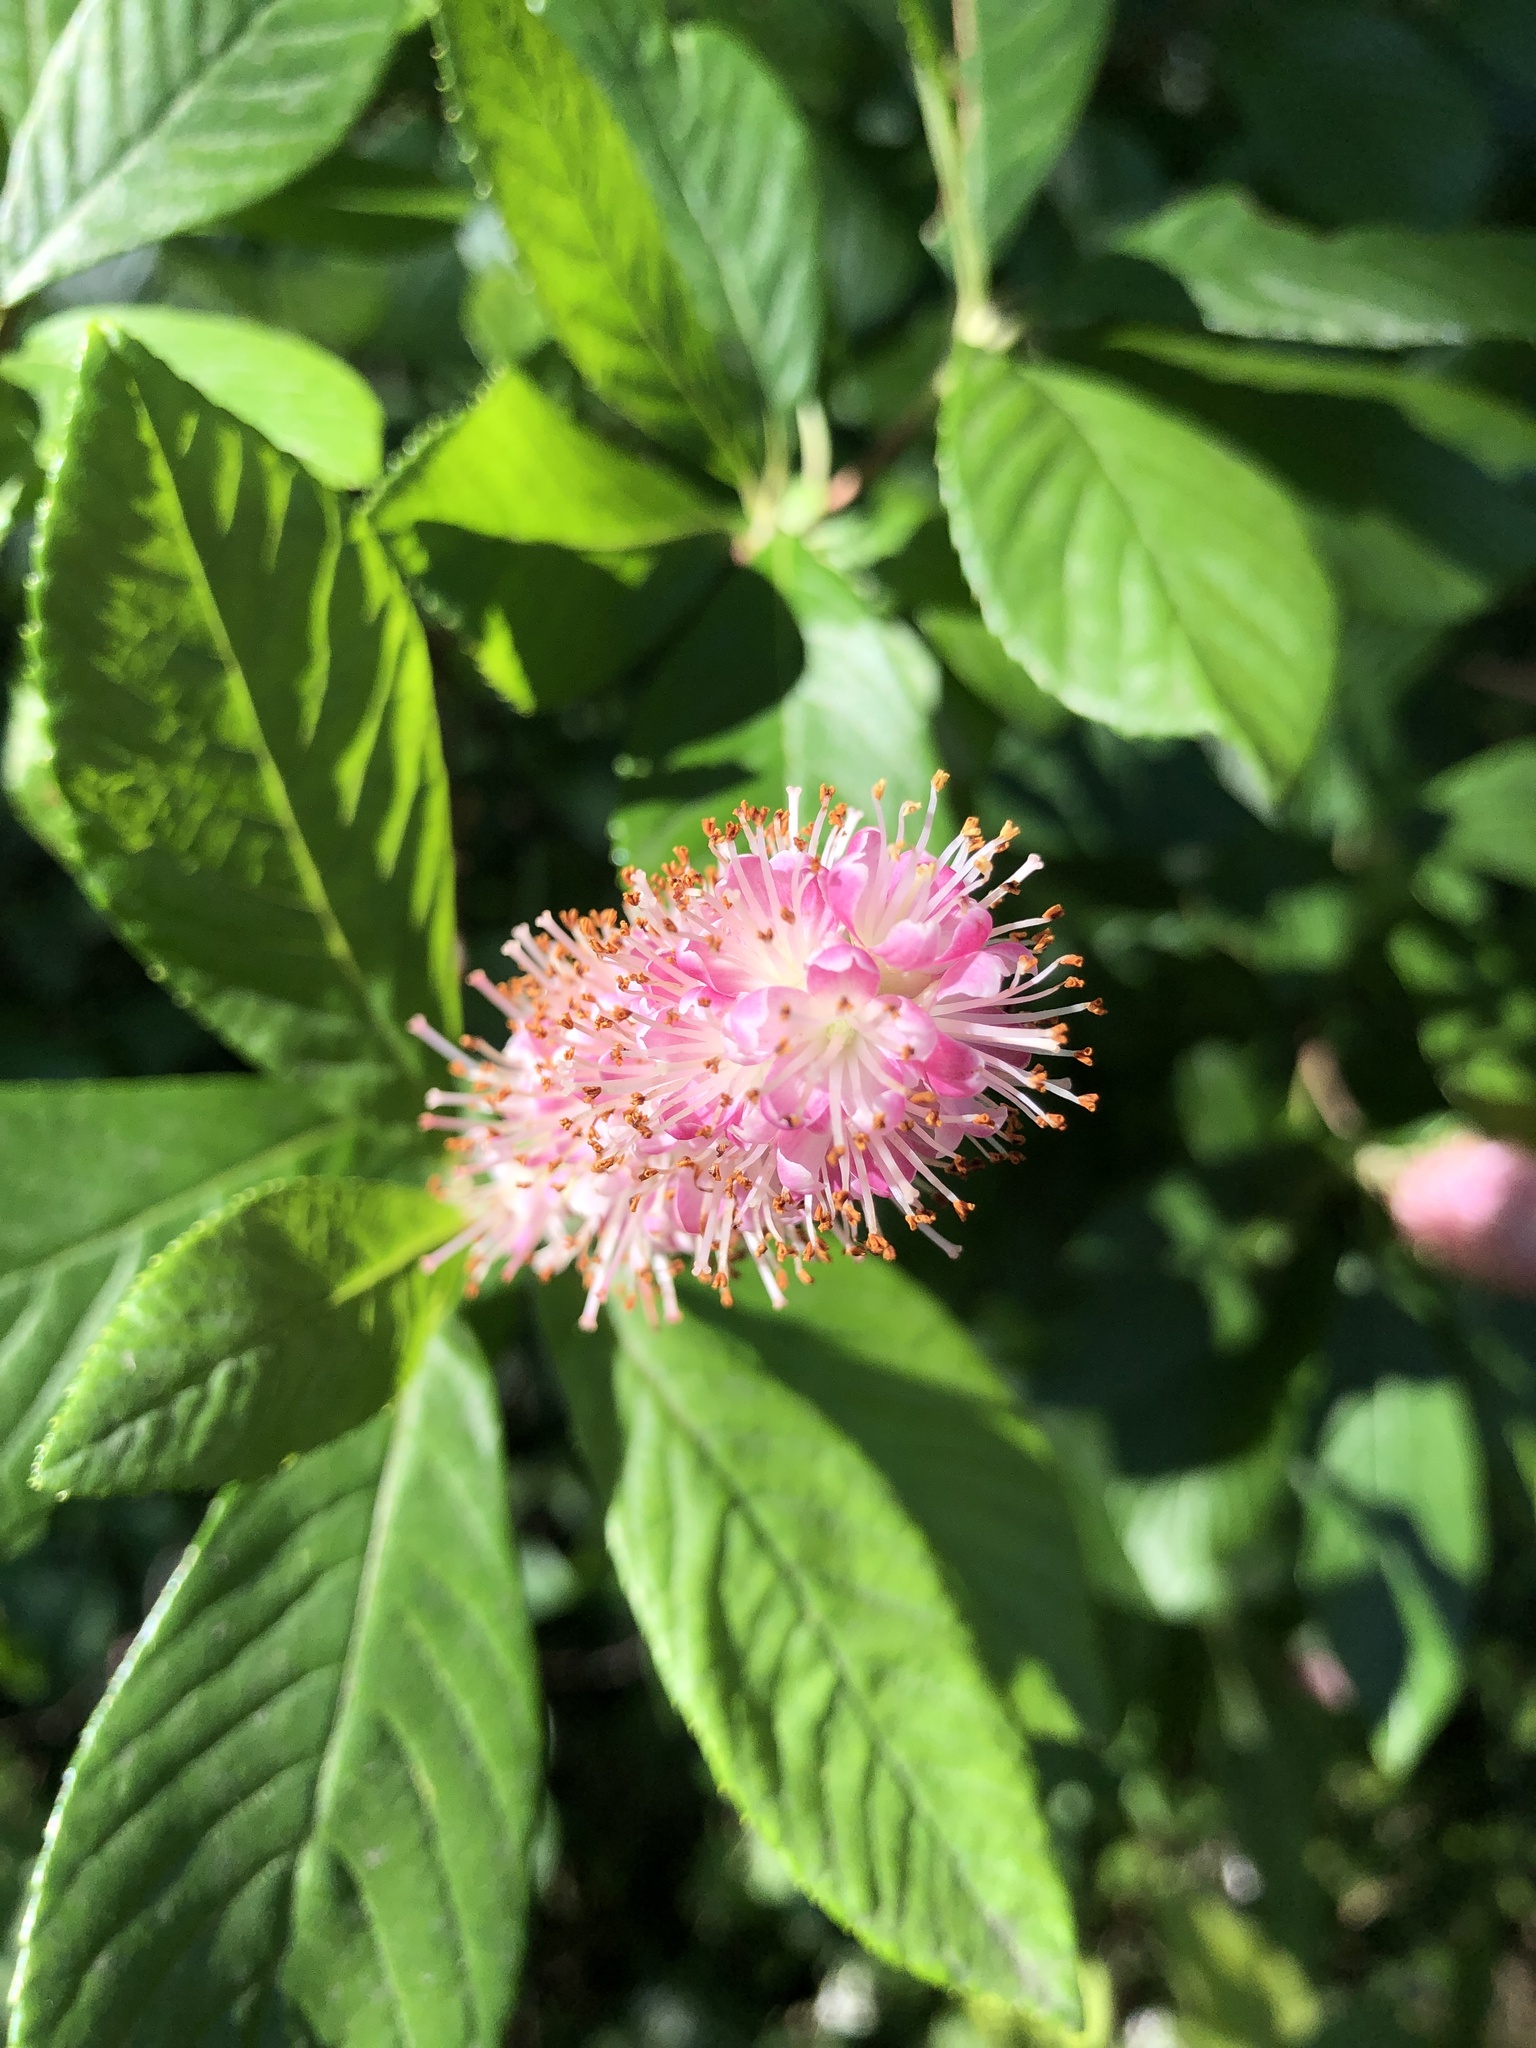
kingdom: Plantae
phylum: Tracheophyta
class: Magnoliopsida
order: Ericales
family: Clethraceae
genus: Clethra
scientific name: Clethra alnifolia
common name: Sweet pepperbush
